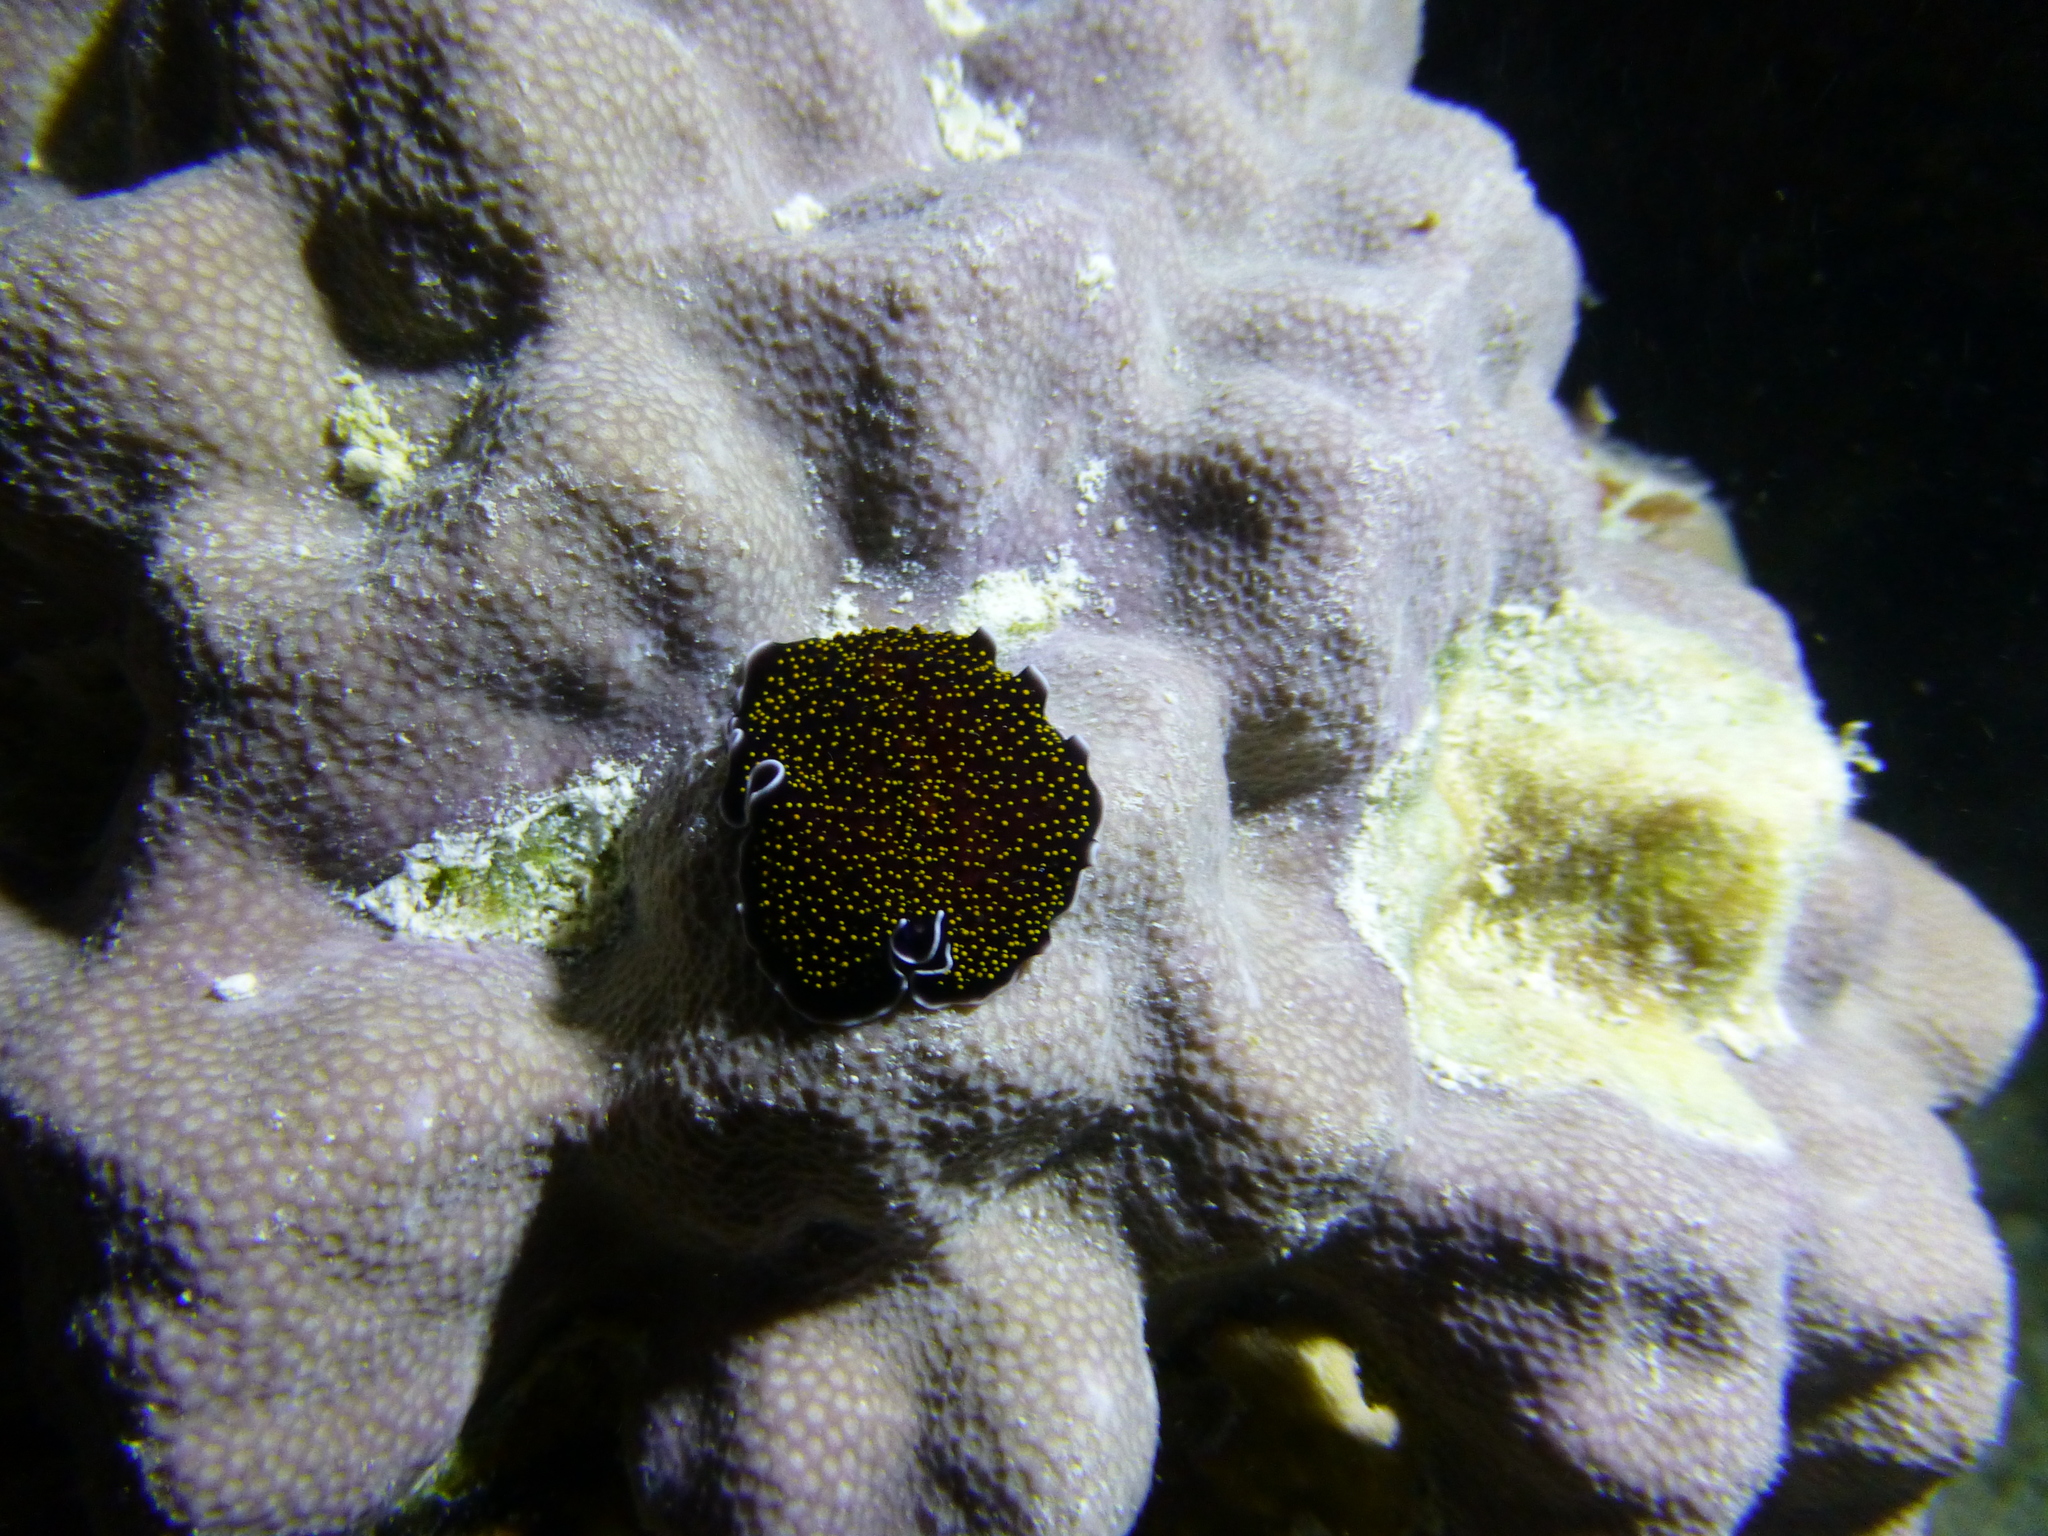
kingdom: Animalia
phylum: Platyhelminthes
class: Turbellaria
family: Pseudocerotidae
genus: Thysanozoon
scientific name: Thysanozoon nigropapillosum
